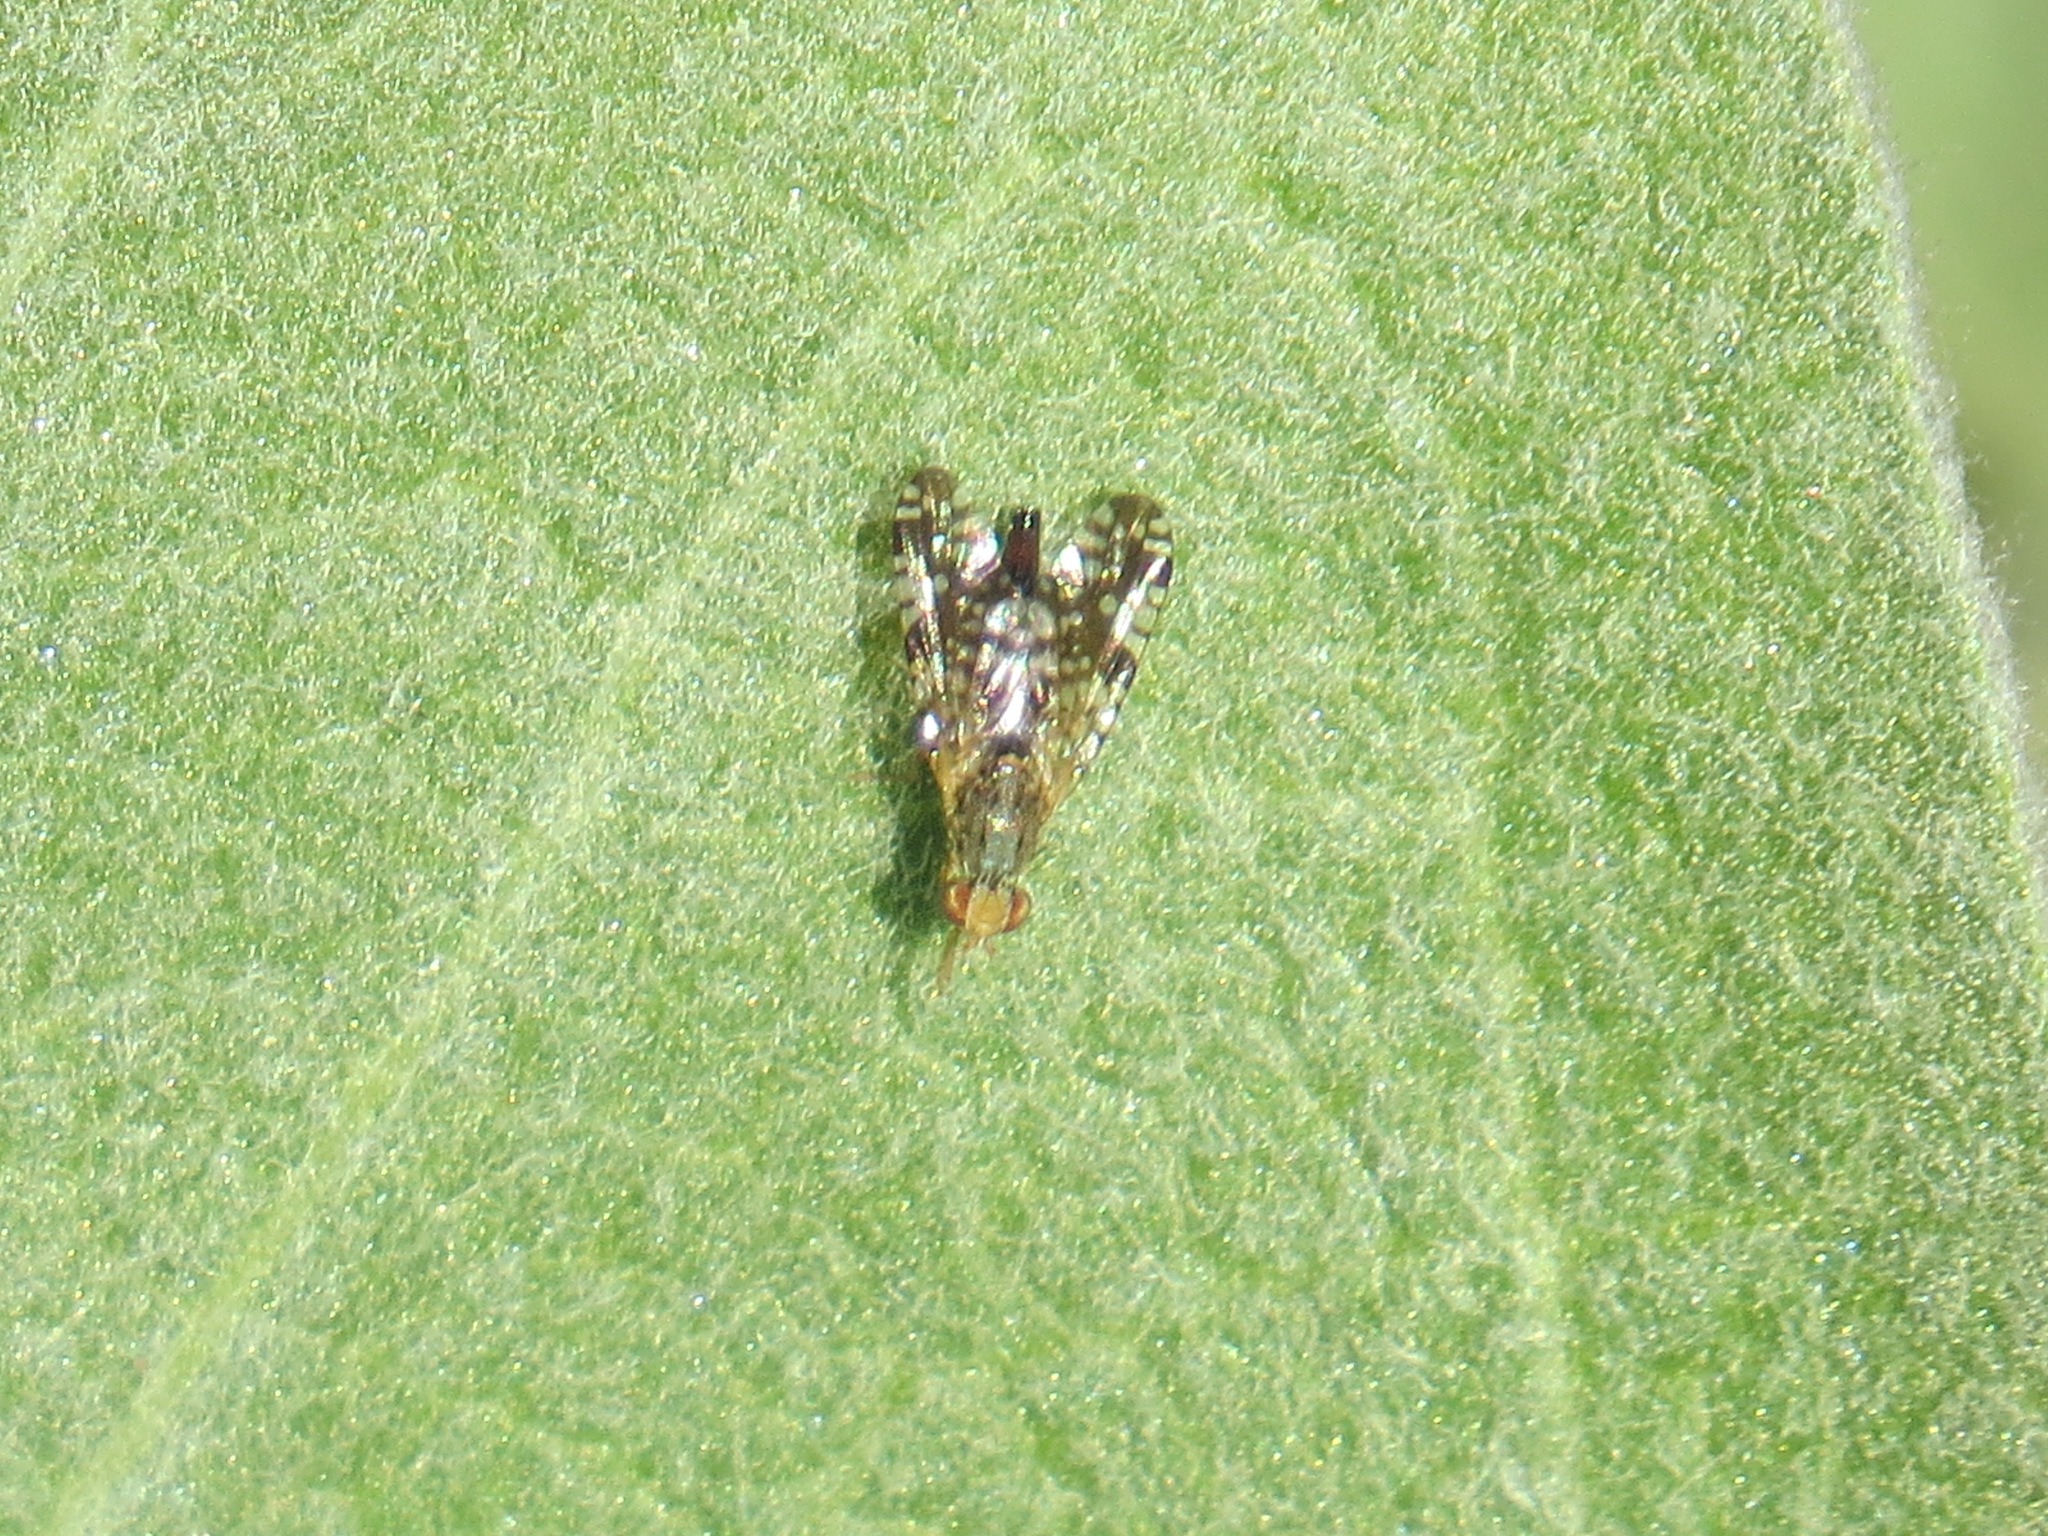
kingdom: Animalia
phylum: Arthropoda
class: Insecta
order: Diptera
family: Tephritidae
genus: Neotephritis
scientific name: Neotephritis finalis
